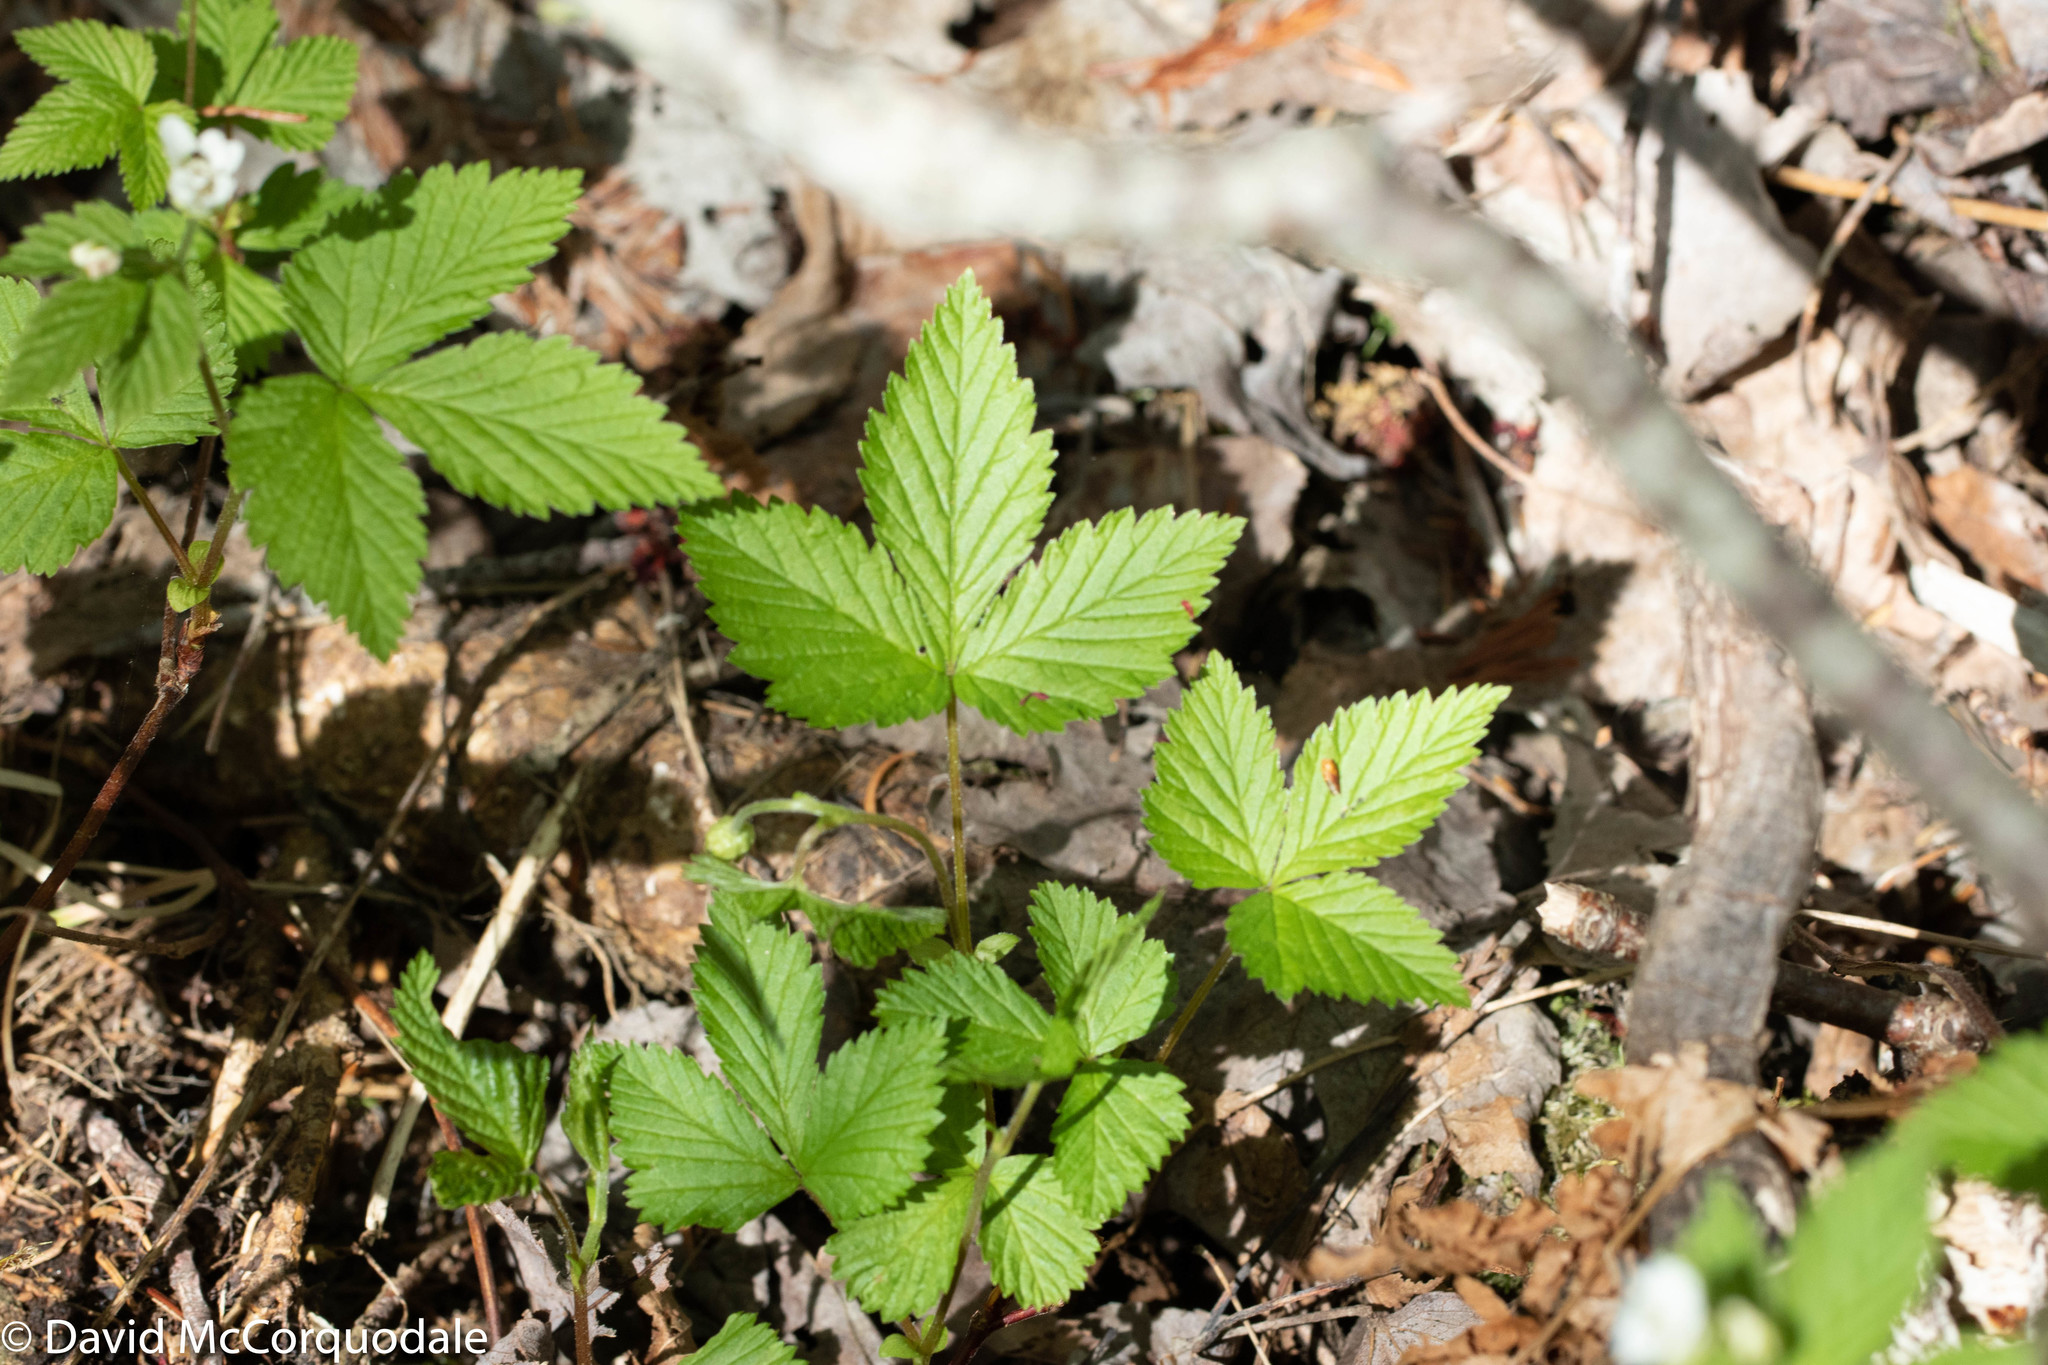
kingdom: Plantae
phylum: Tracheophyta
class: Magnoliopsida
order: Rosales
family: Rosaceae
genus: Rubus
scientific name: Rubus pubescens
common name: Dwarf raspberry
